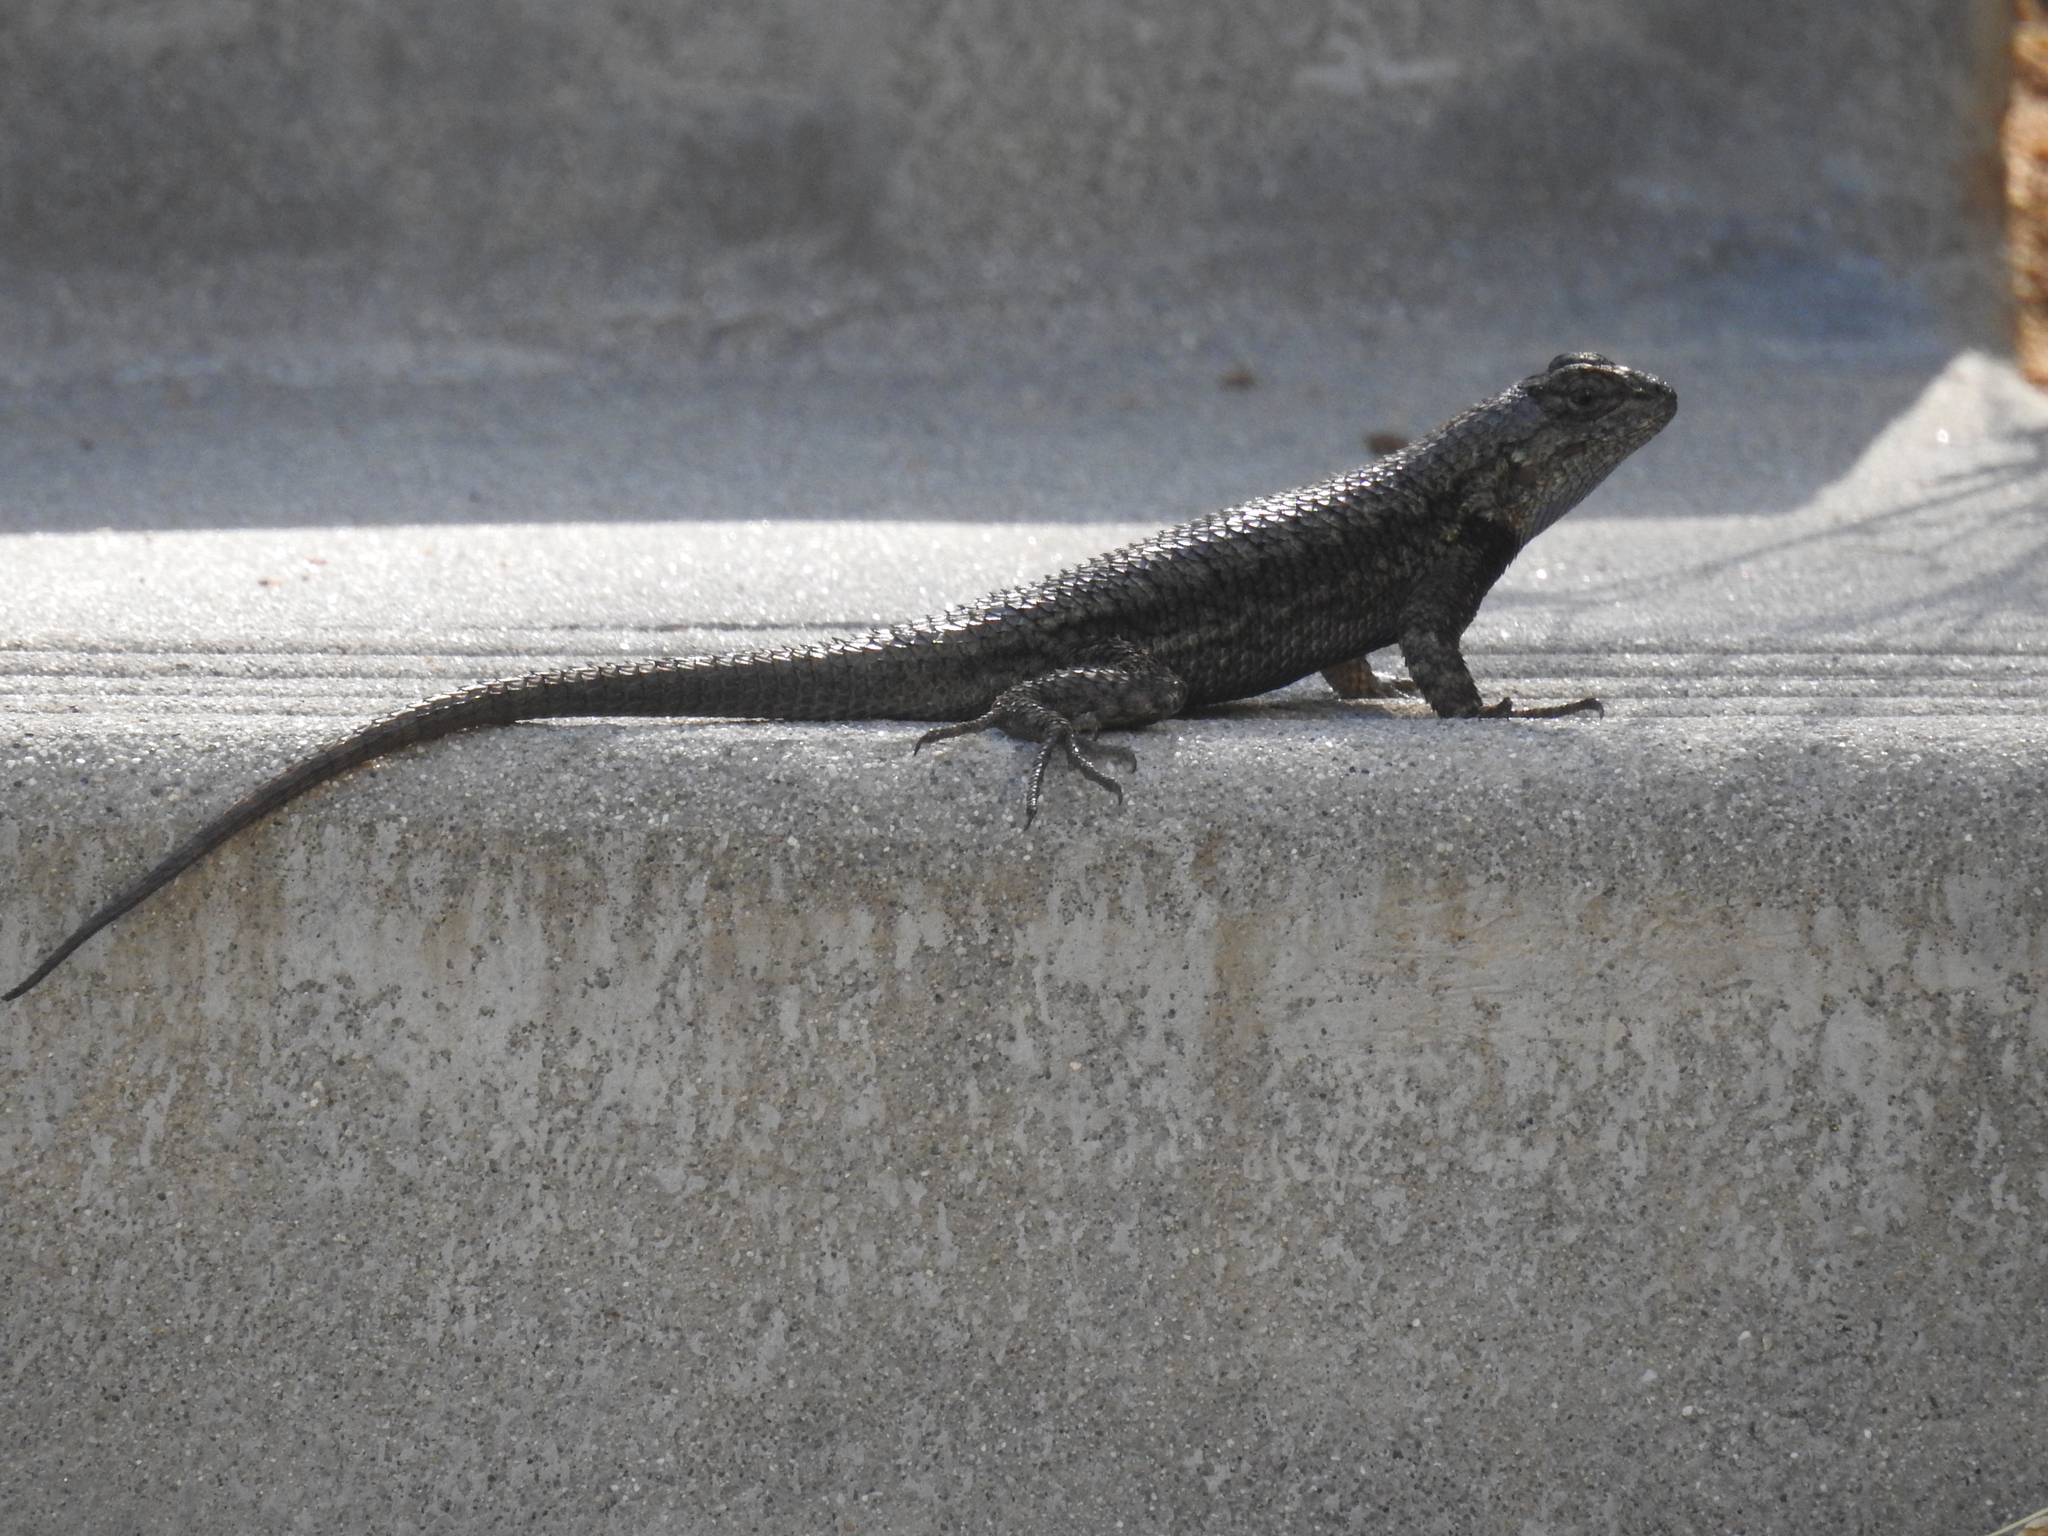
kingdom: Animalia
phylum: Chordata
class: Squamata
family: Phrynosomatidae
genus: Sceloporus
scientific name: Sceloporus occidentalis
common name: Western fence lizard
